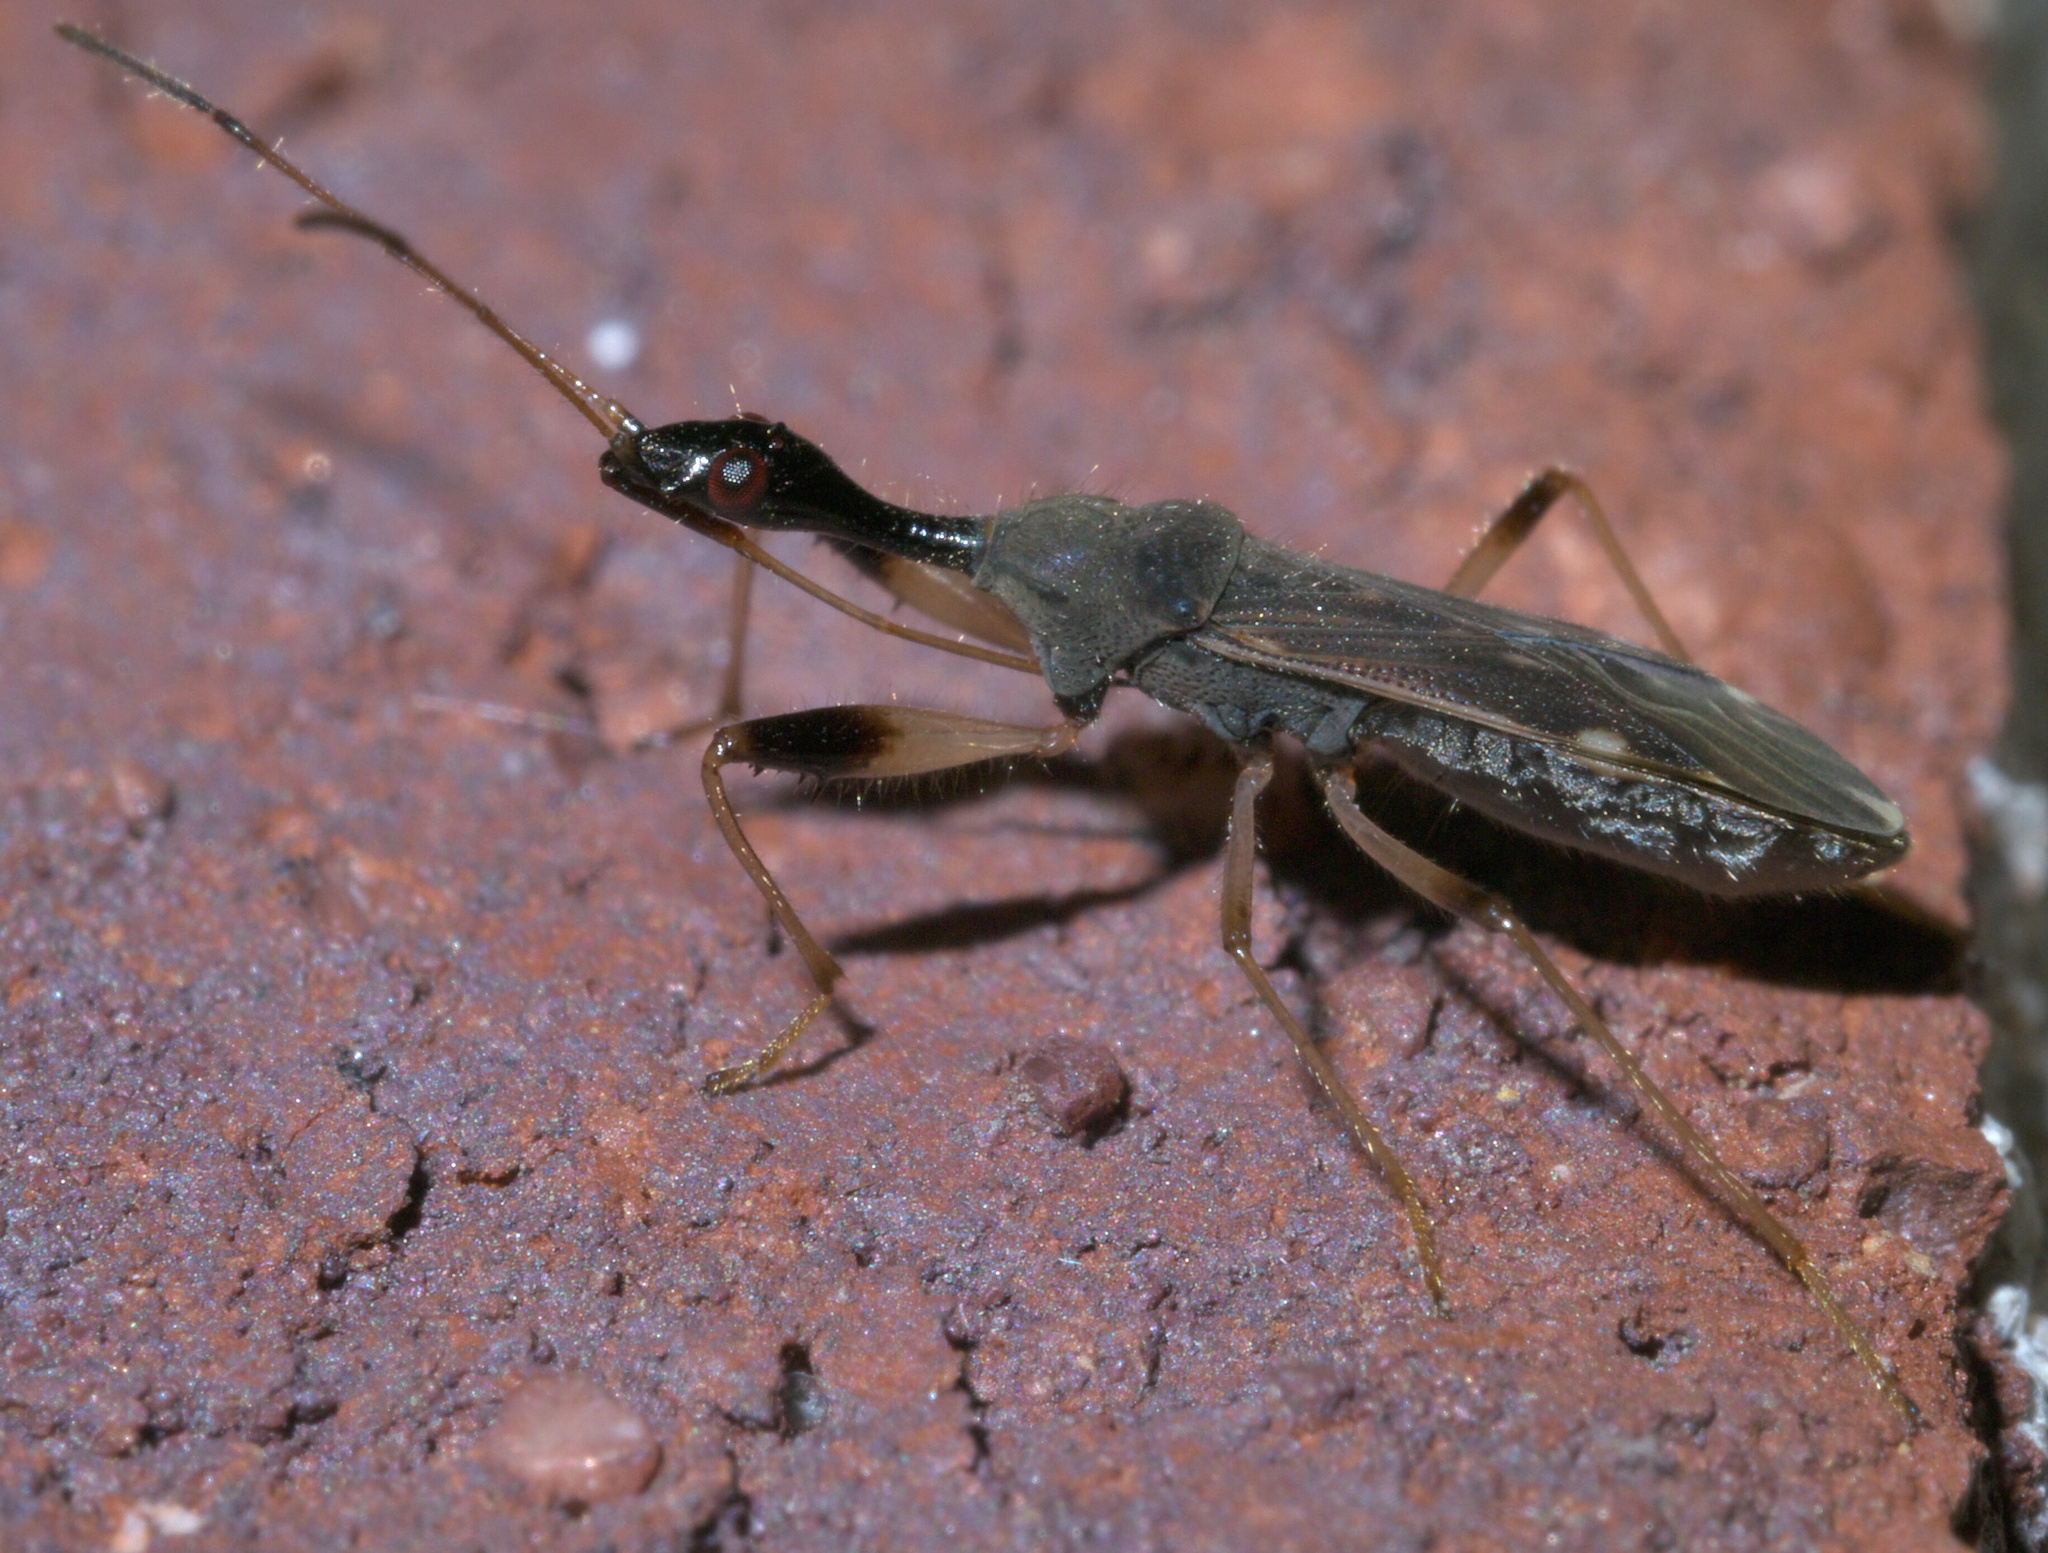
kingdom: Animalia
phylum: Arthropoda
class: Insecta
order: Hemiptera
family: Rhyparochromidae
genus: Myodocha
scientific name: Myodocha serripes
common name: Long-necked seed bug
